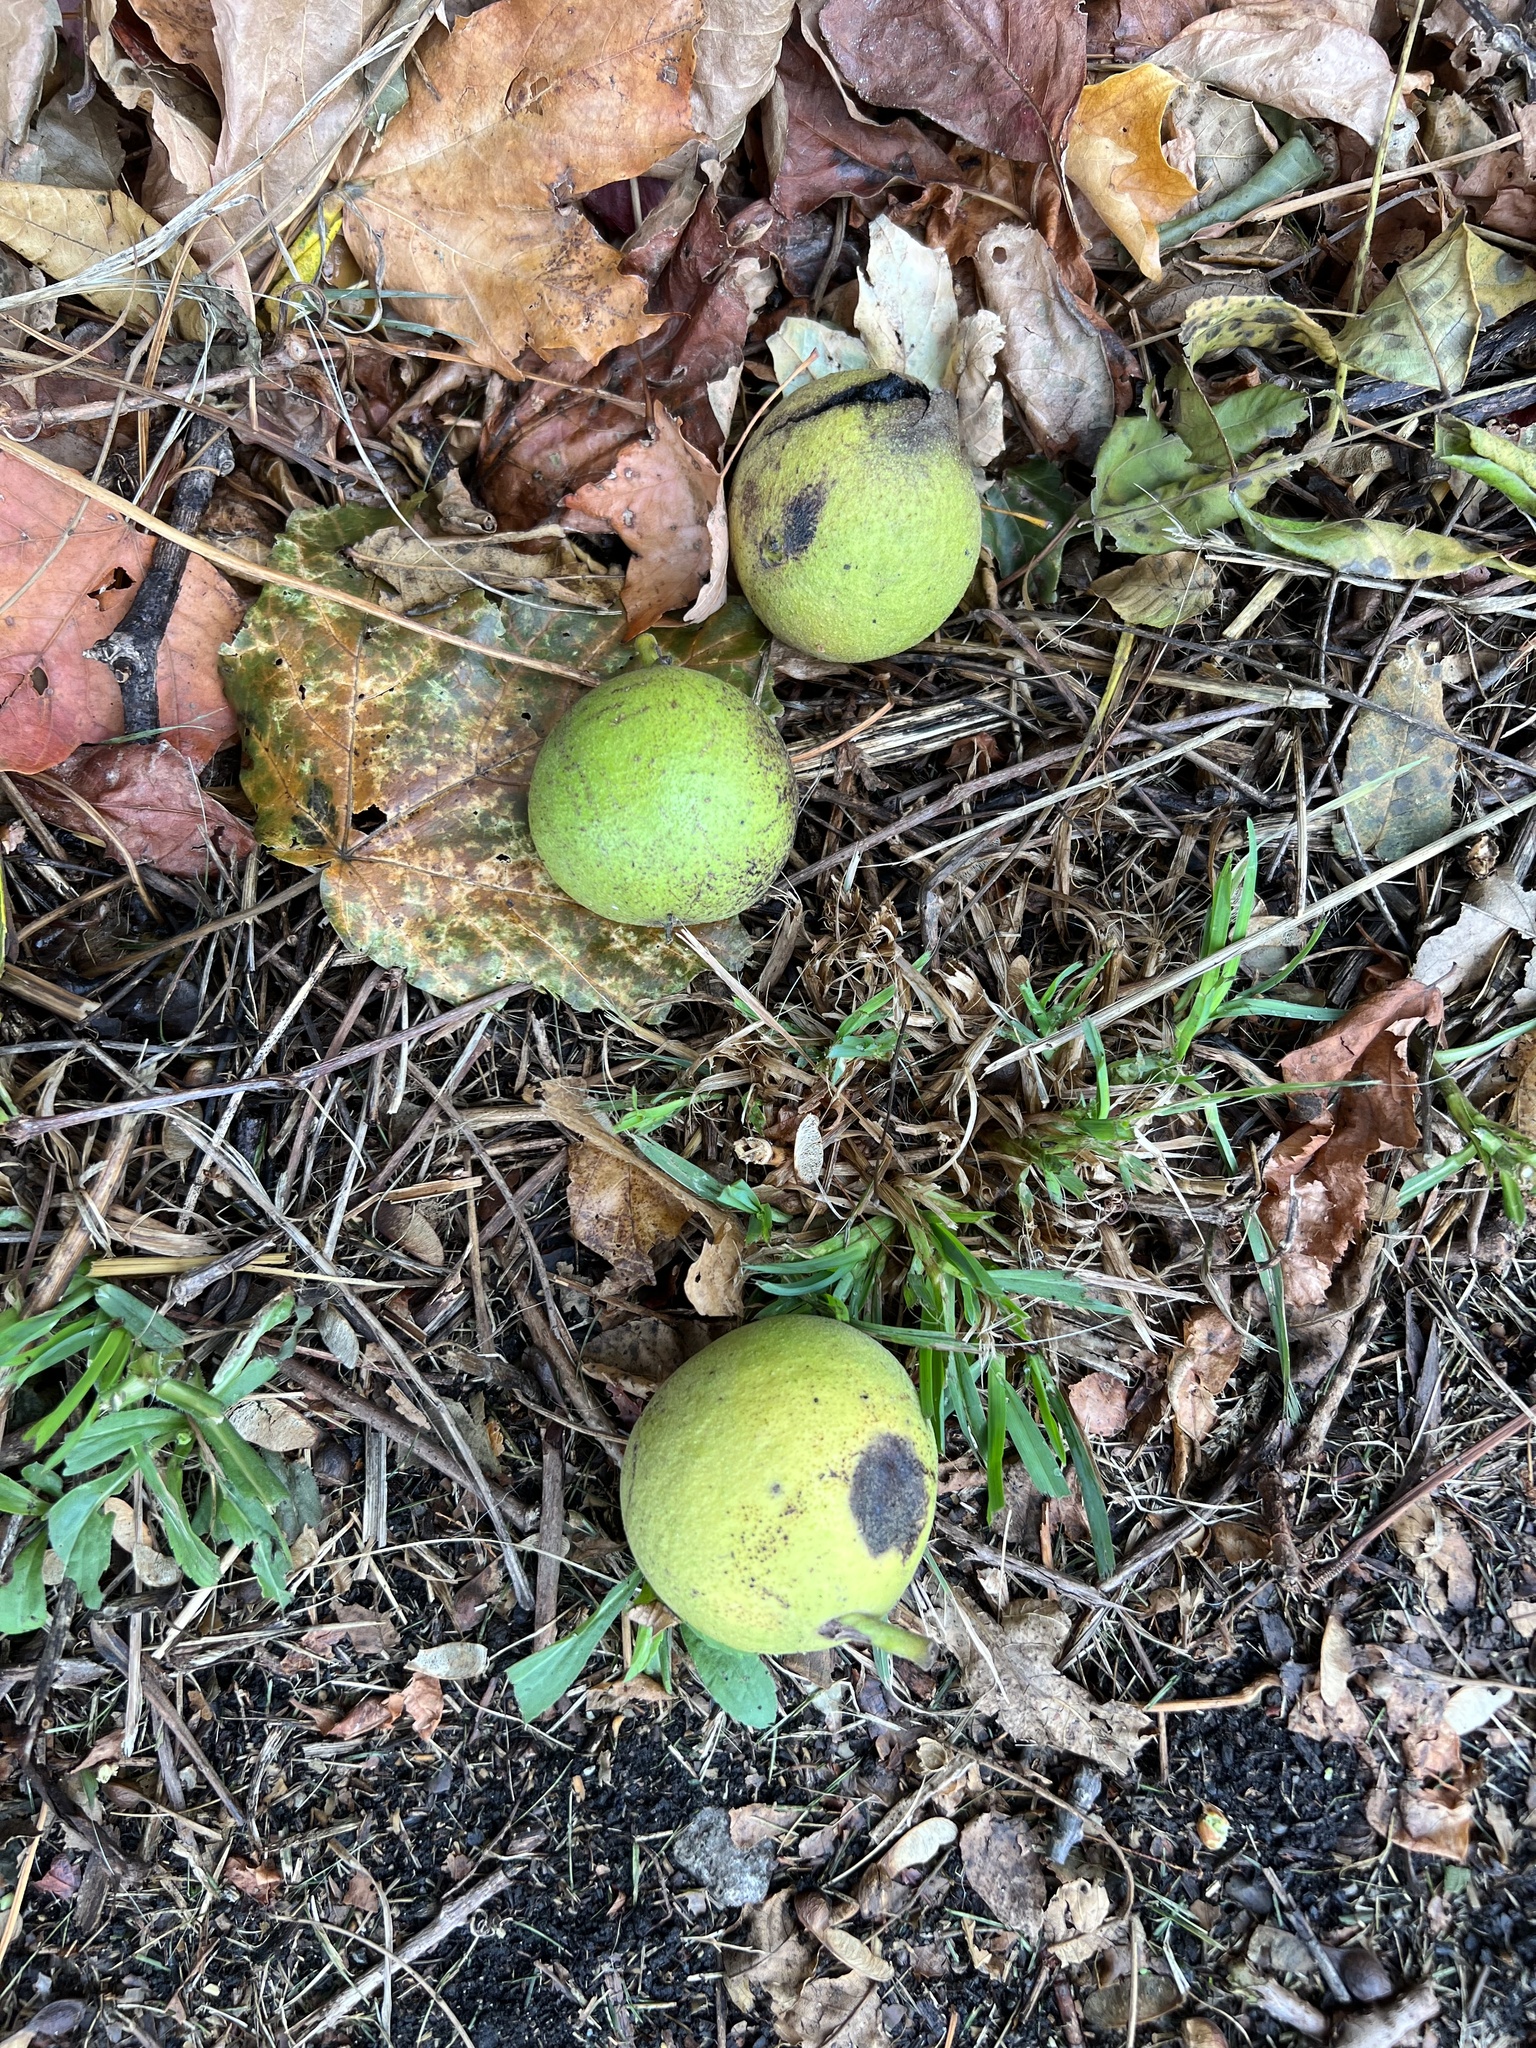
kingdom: Plantae
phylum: Tracheophyta
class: Magnoliopsida
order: Fagales
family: Juglandaceae
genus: Juglans
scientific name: Juglans nigra
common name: Black walnut
